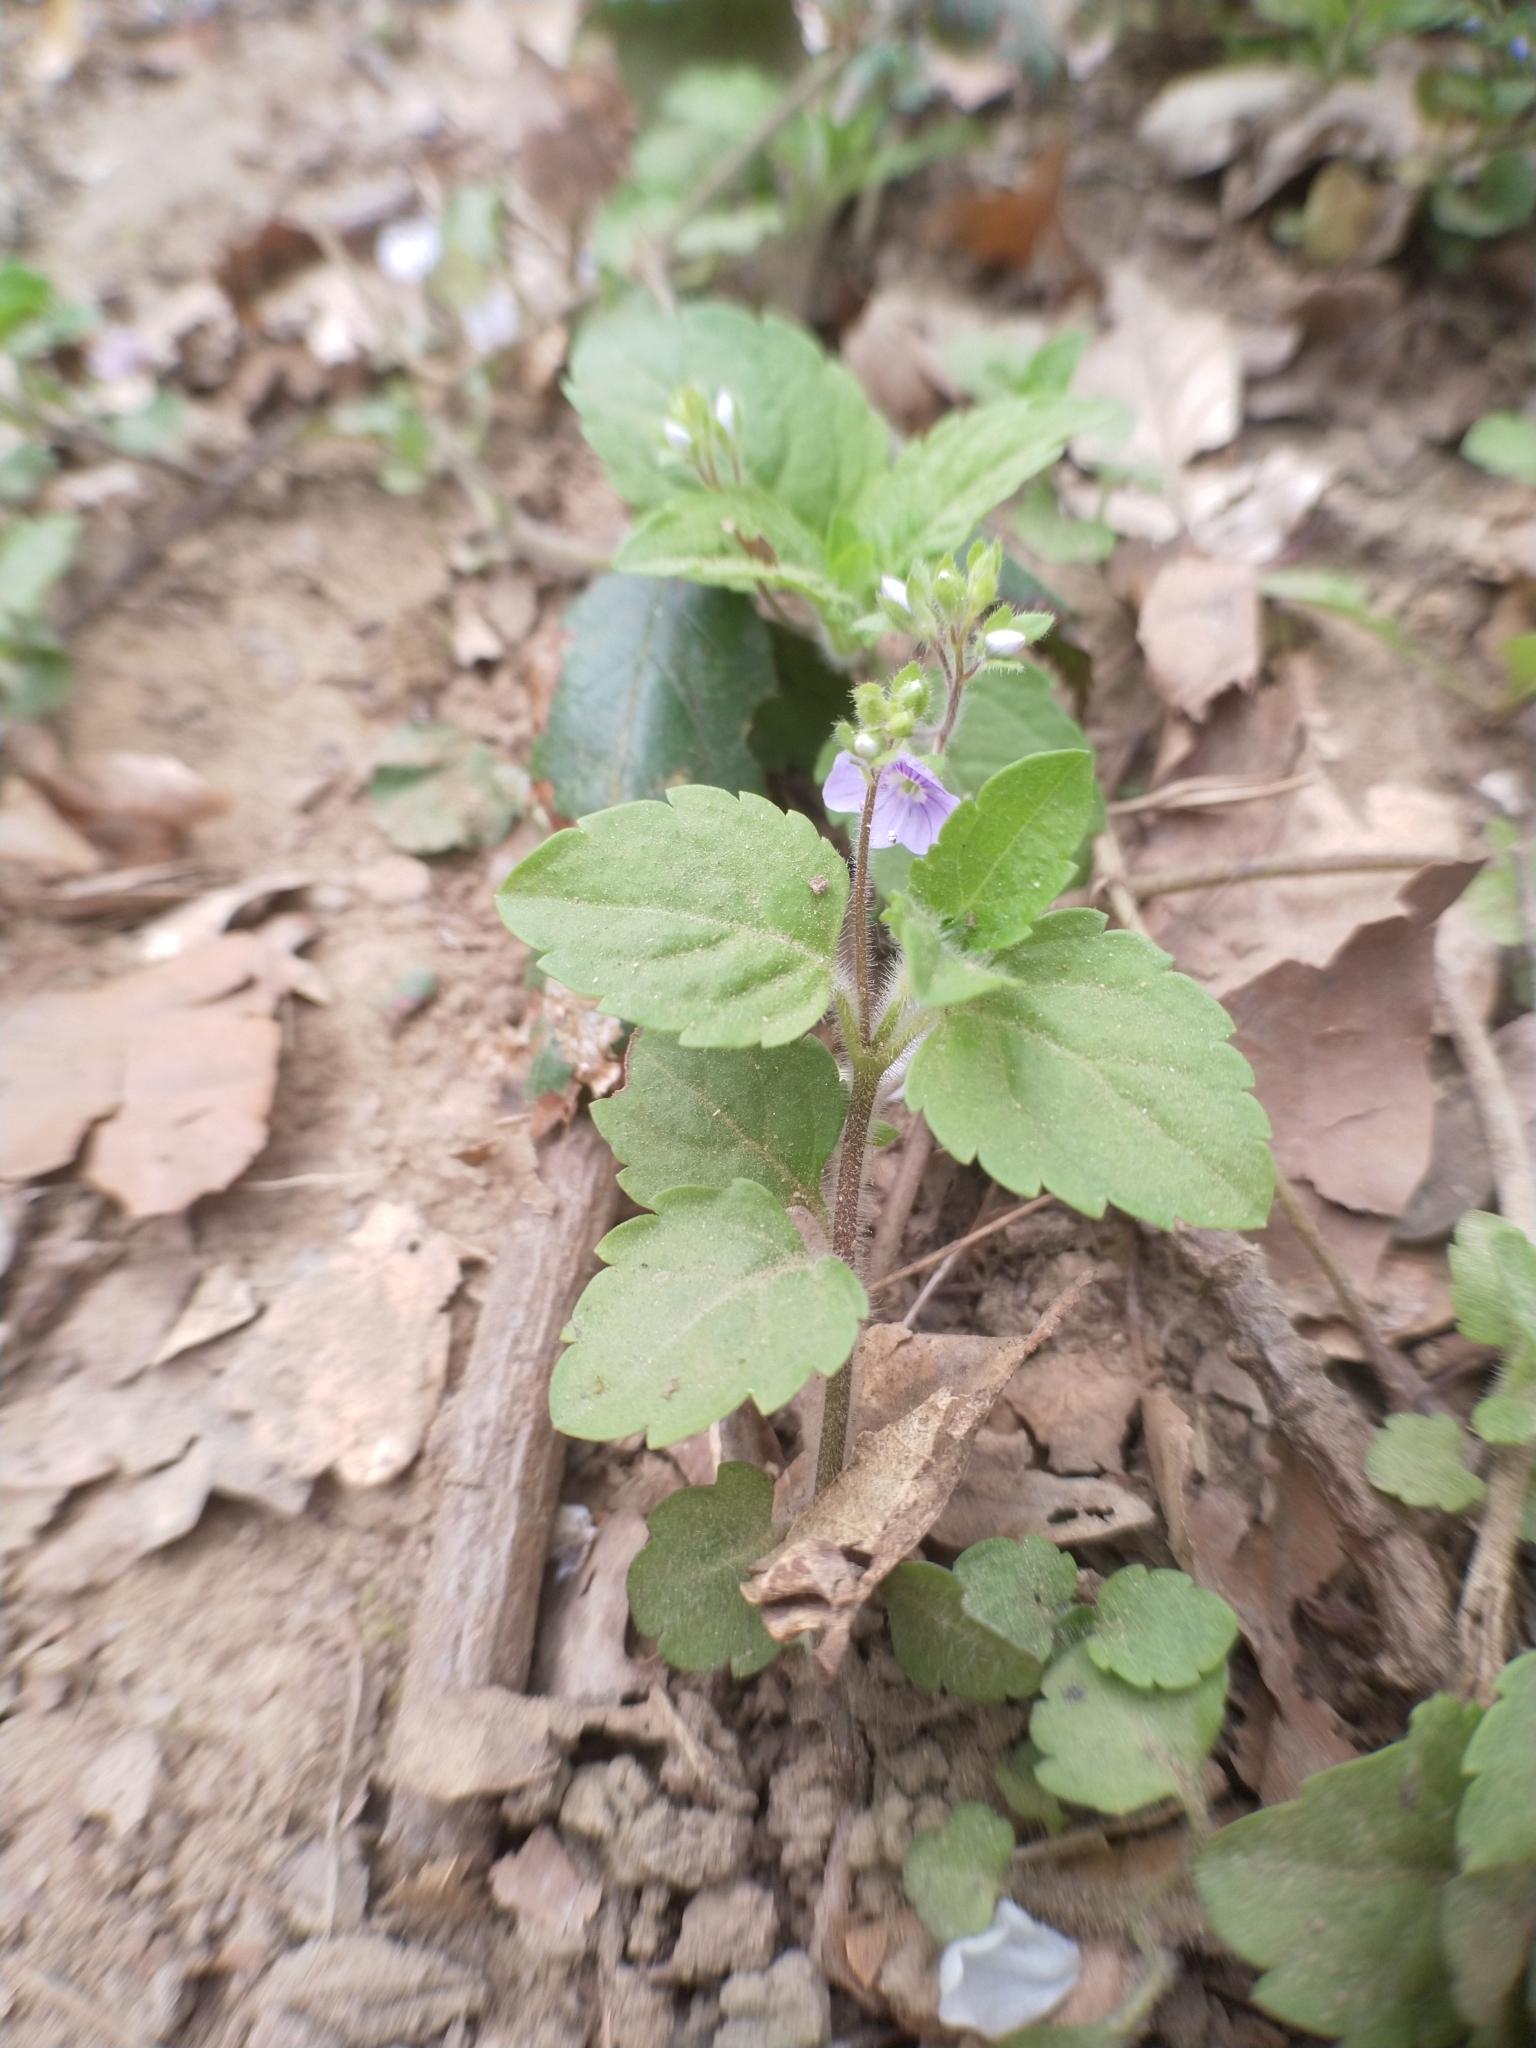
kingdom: Plantae
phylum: Tracheophyta
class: Magnoliopsida
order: Lamiales
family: Plantaginaceae
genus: Veronica
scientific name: Veronica montana
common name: Wood speedwell
